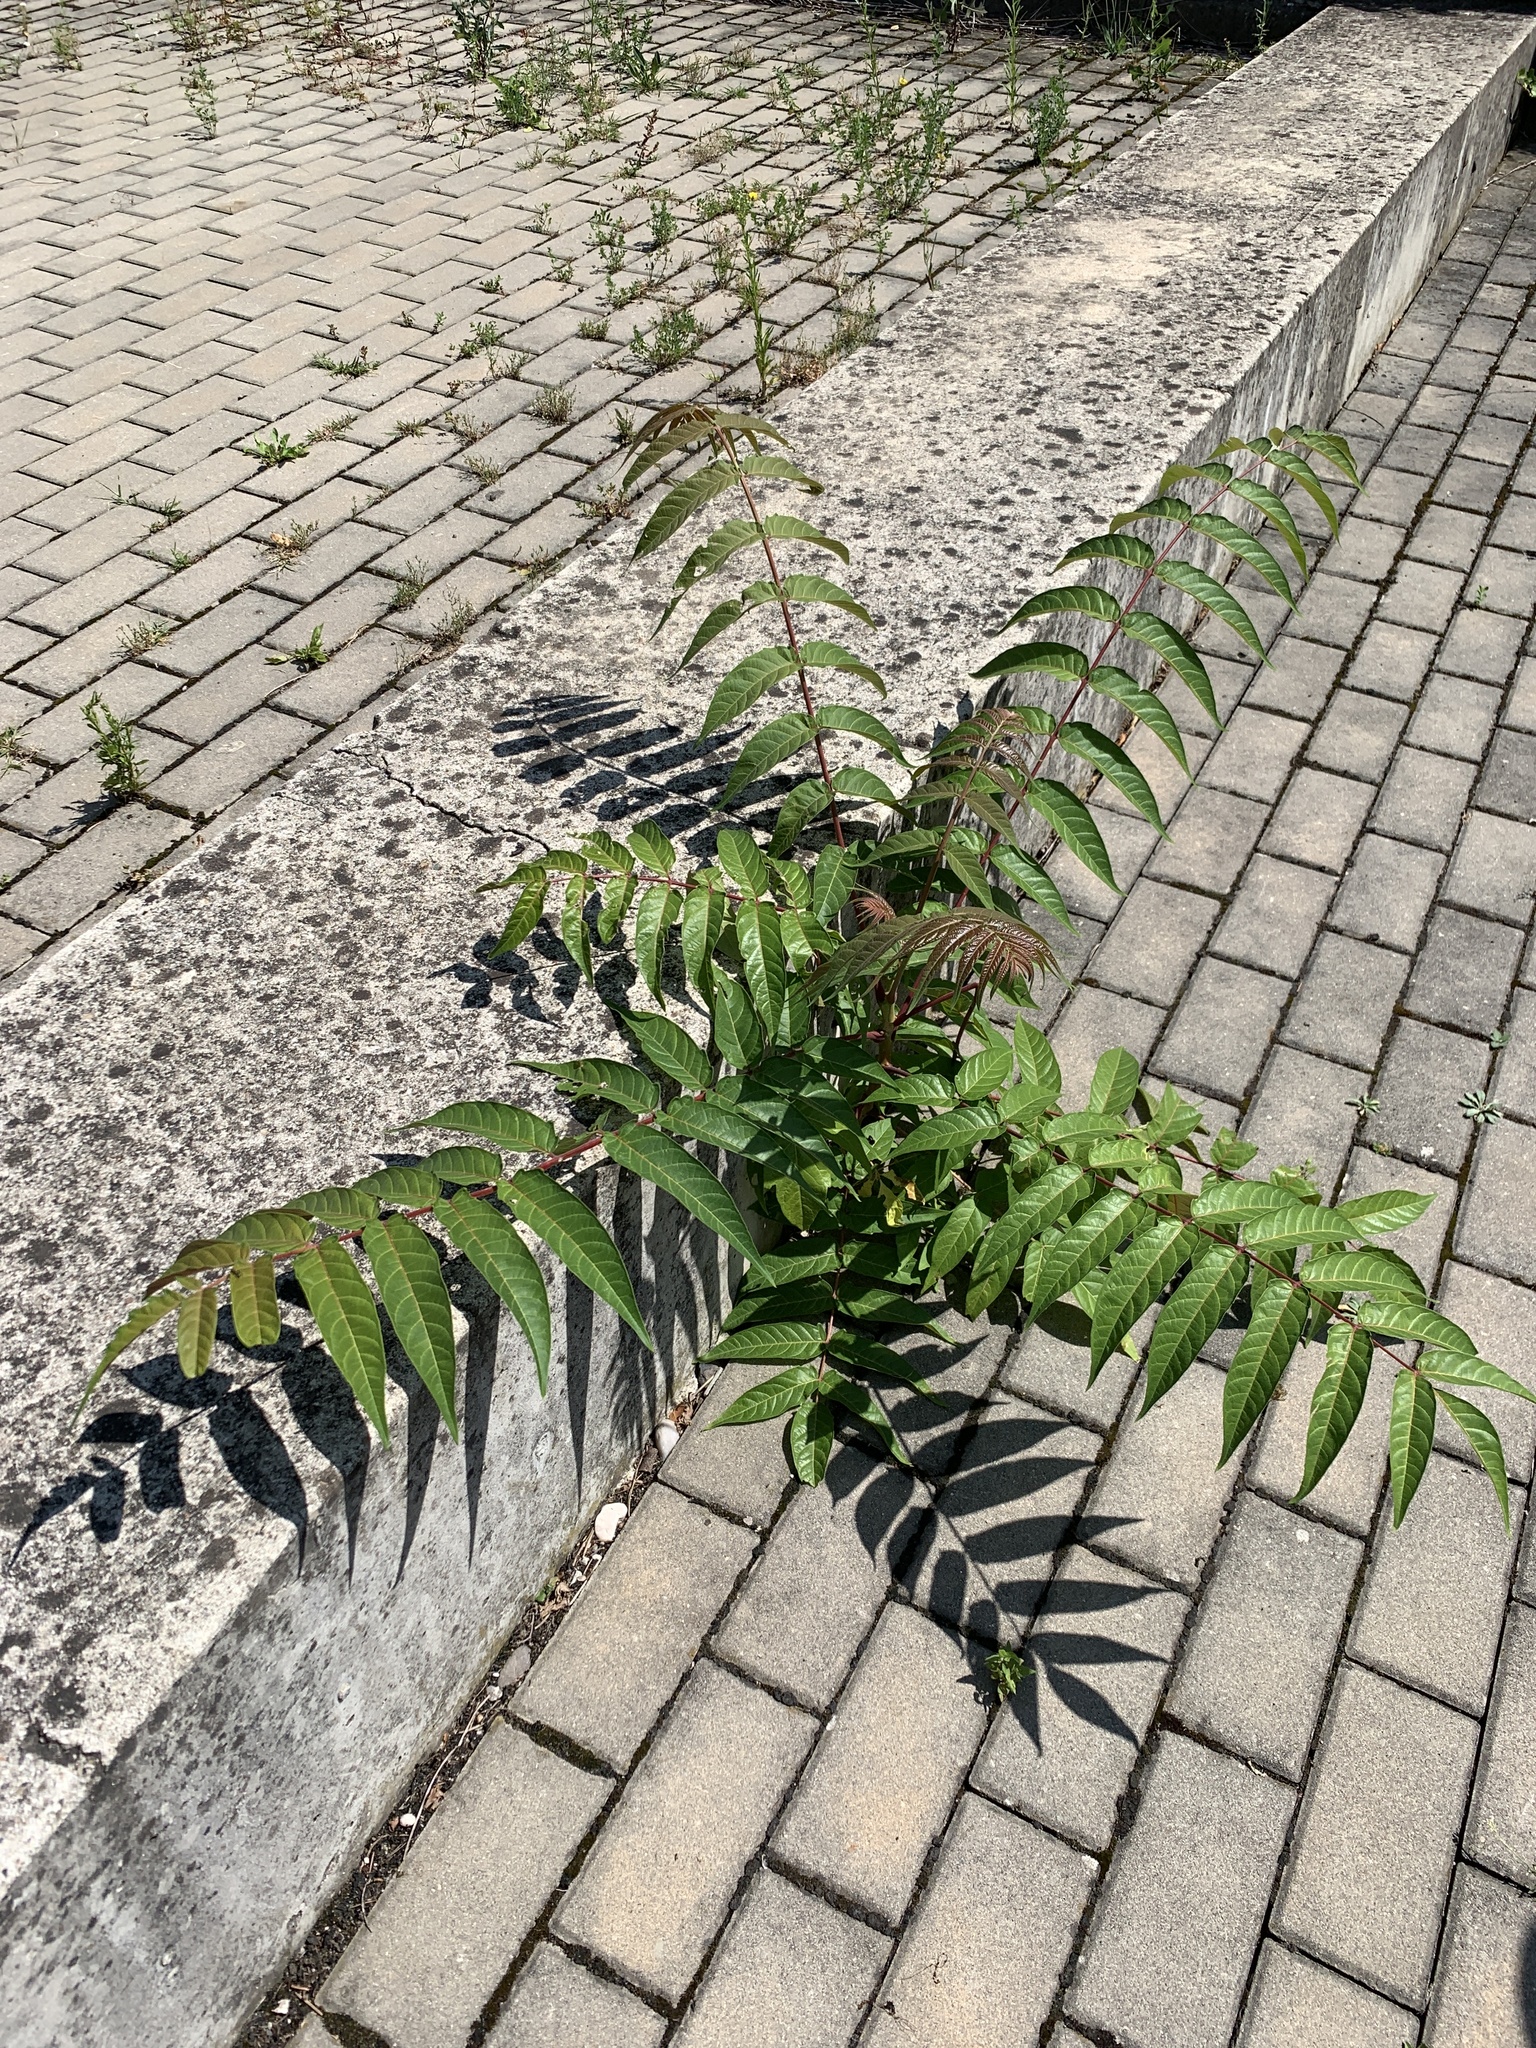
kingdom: Plantae
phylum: Tracheophyta
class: Magnoliopsida
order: Sapindales
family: Simaroubaceae
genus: Ailanthus
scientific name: Ailanthus altissima
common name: Tree-of-heaven
